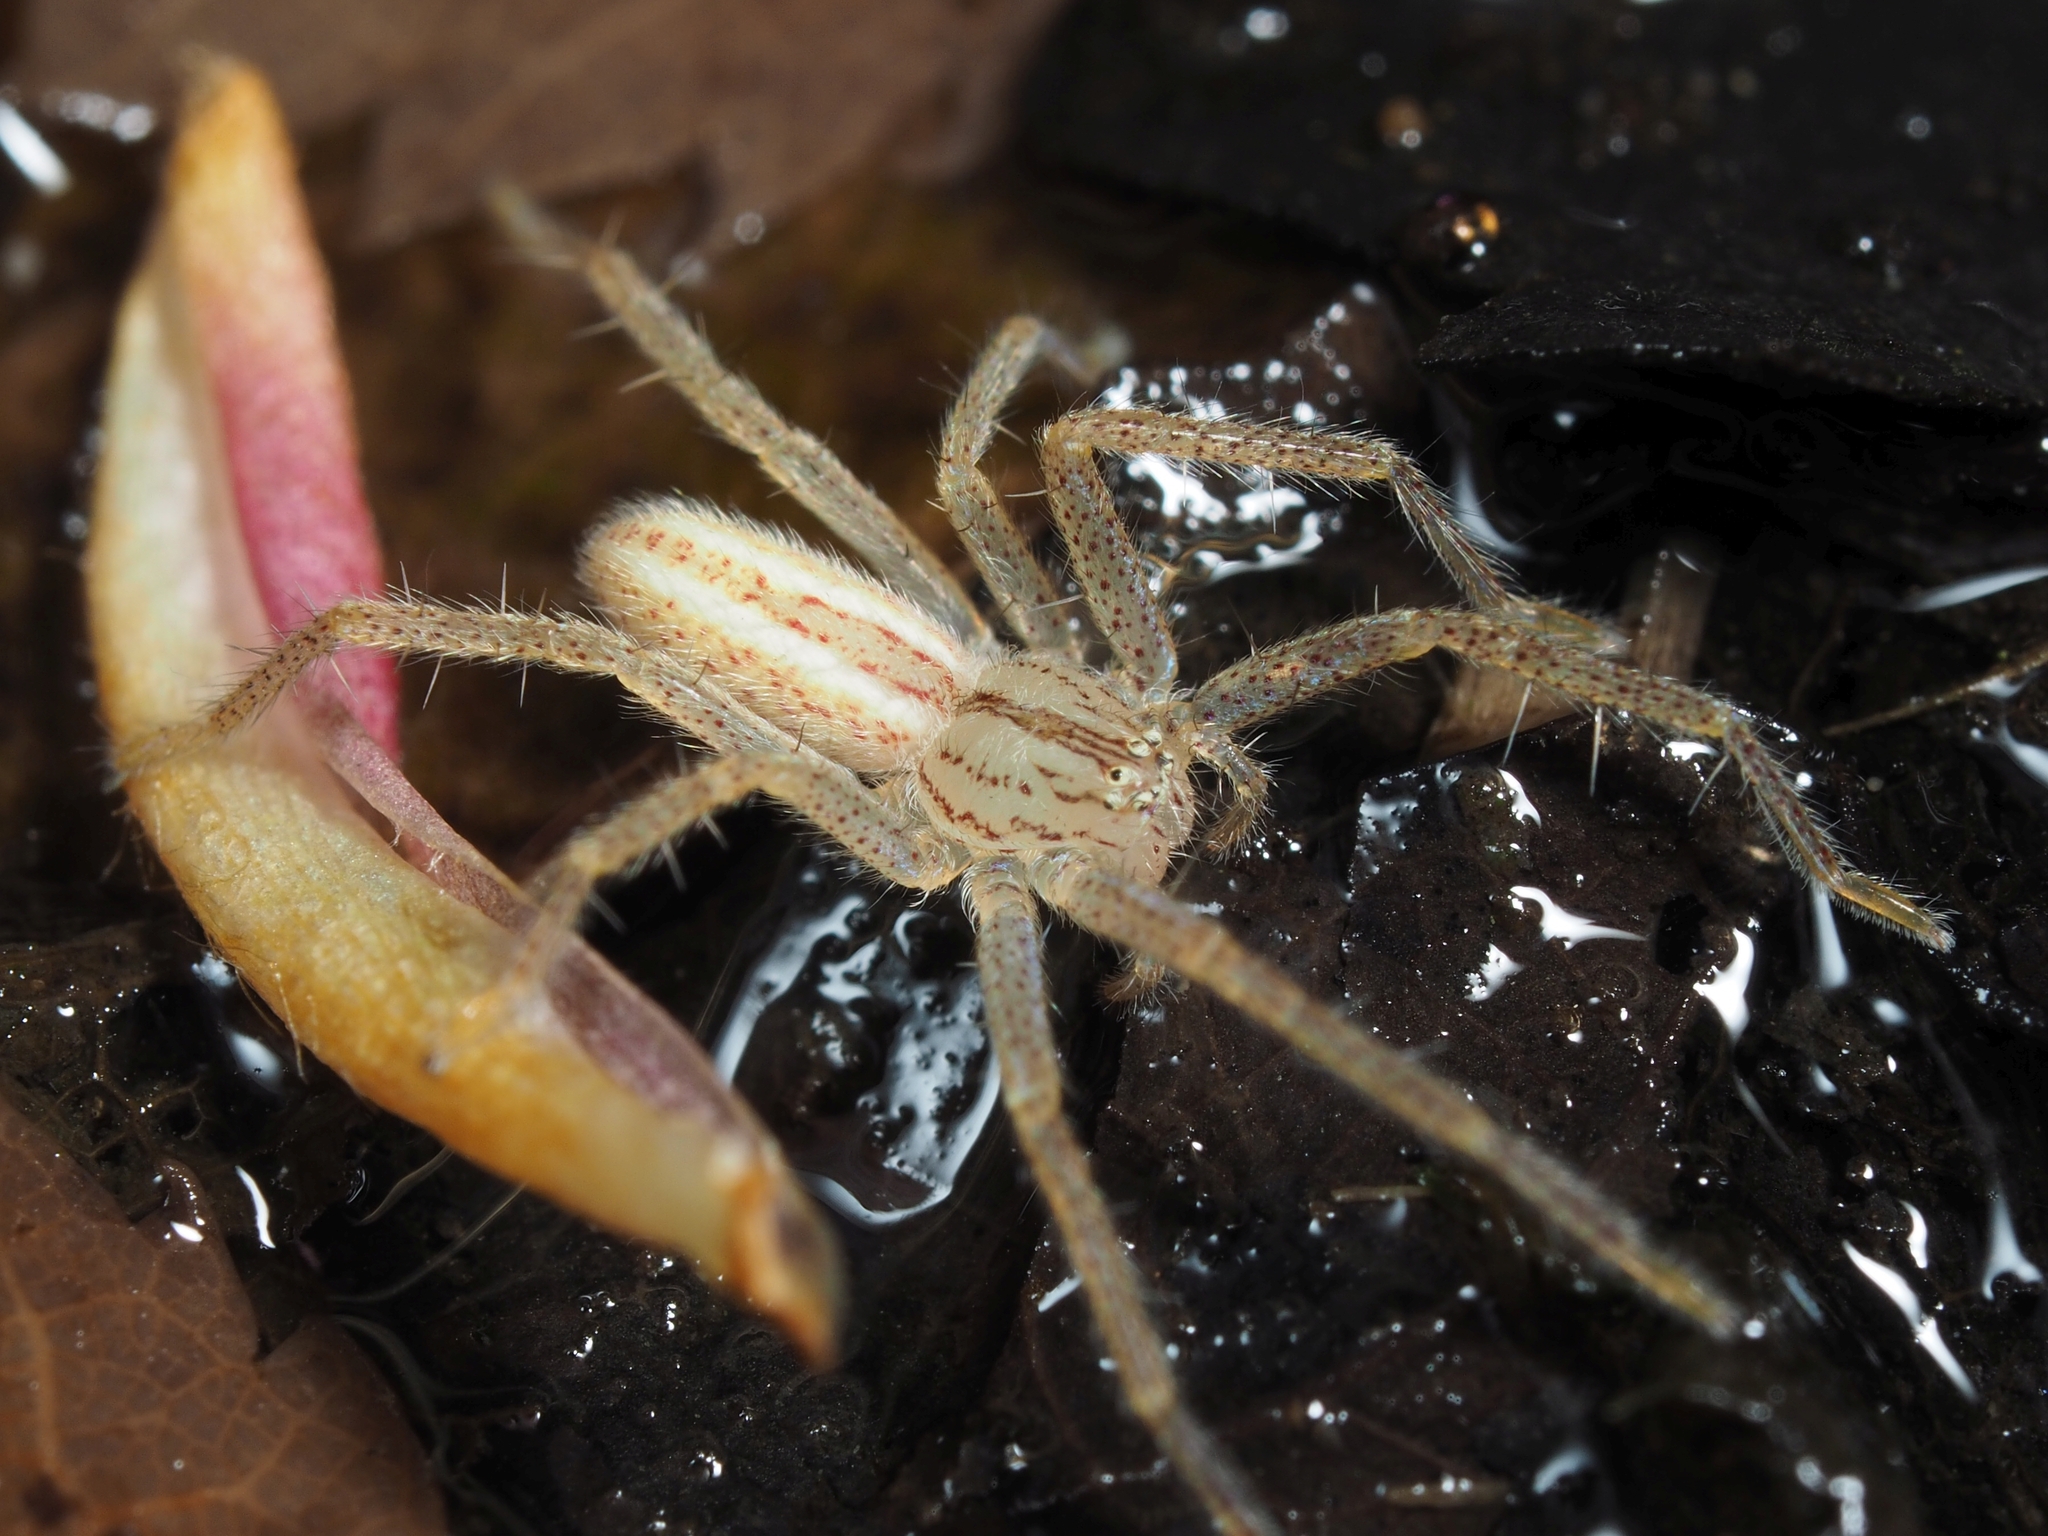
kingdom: Animalia
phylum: Arthropoda
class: Arachnida
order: Araneae
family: Sparassidae
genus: Micrommata
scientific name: Micrommata virescens
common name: Green spider
